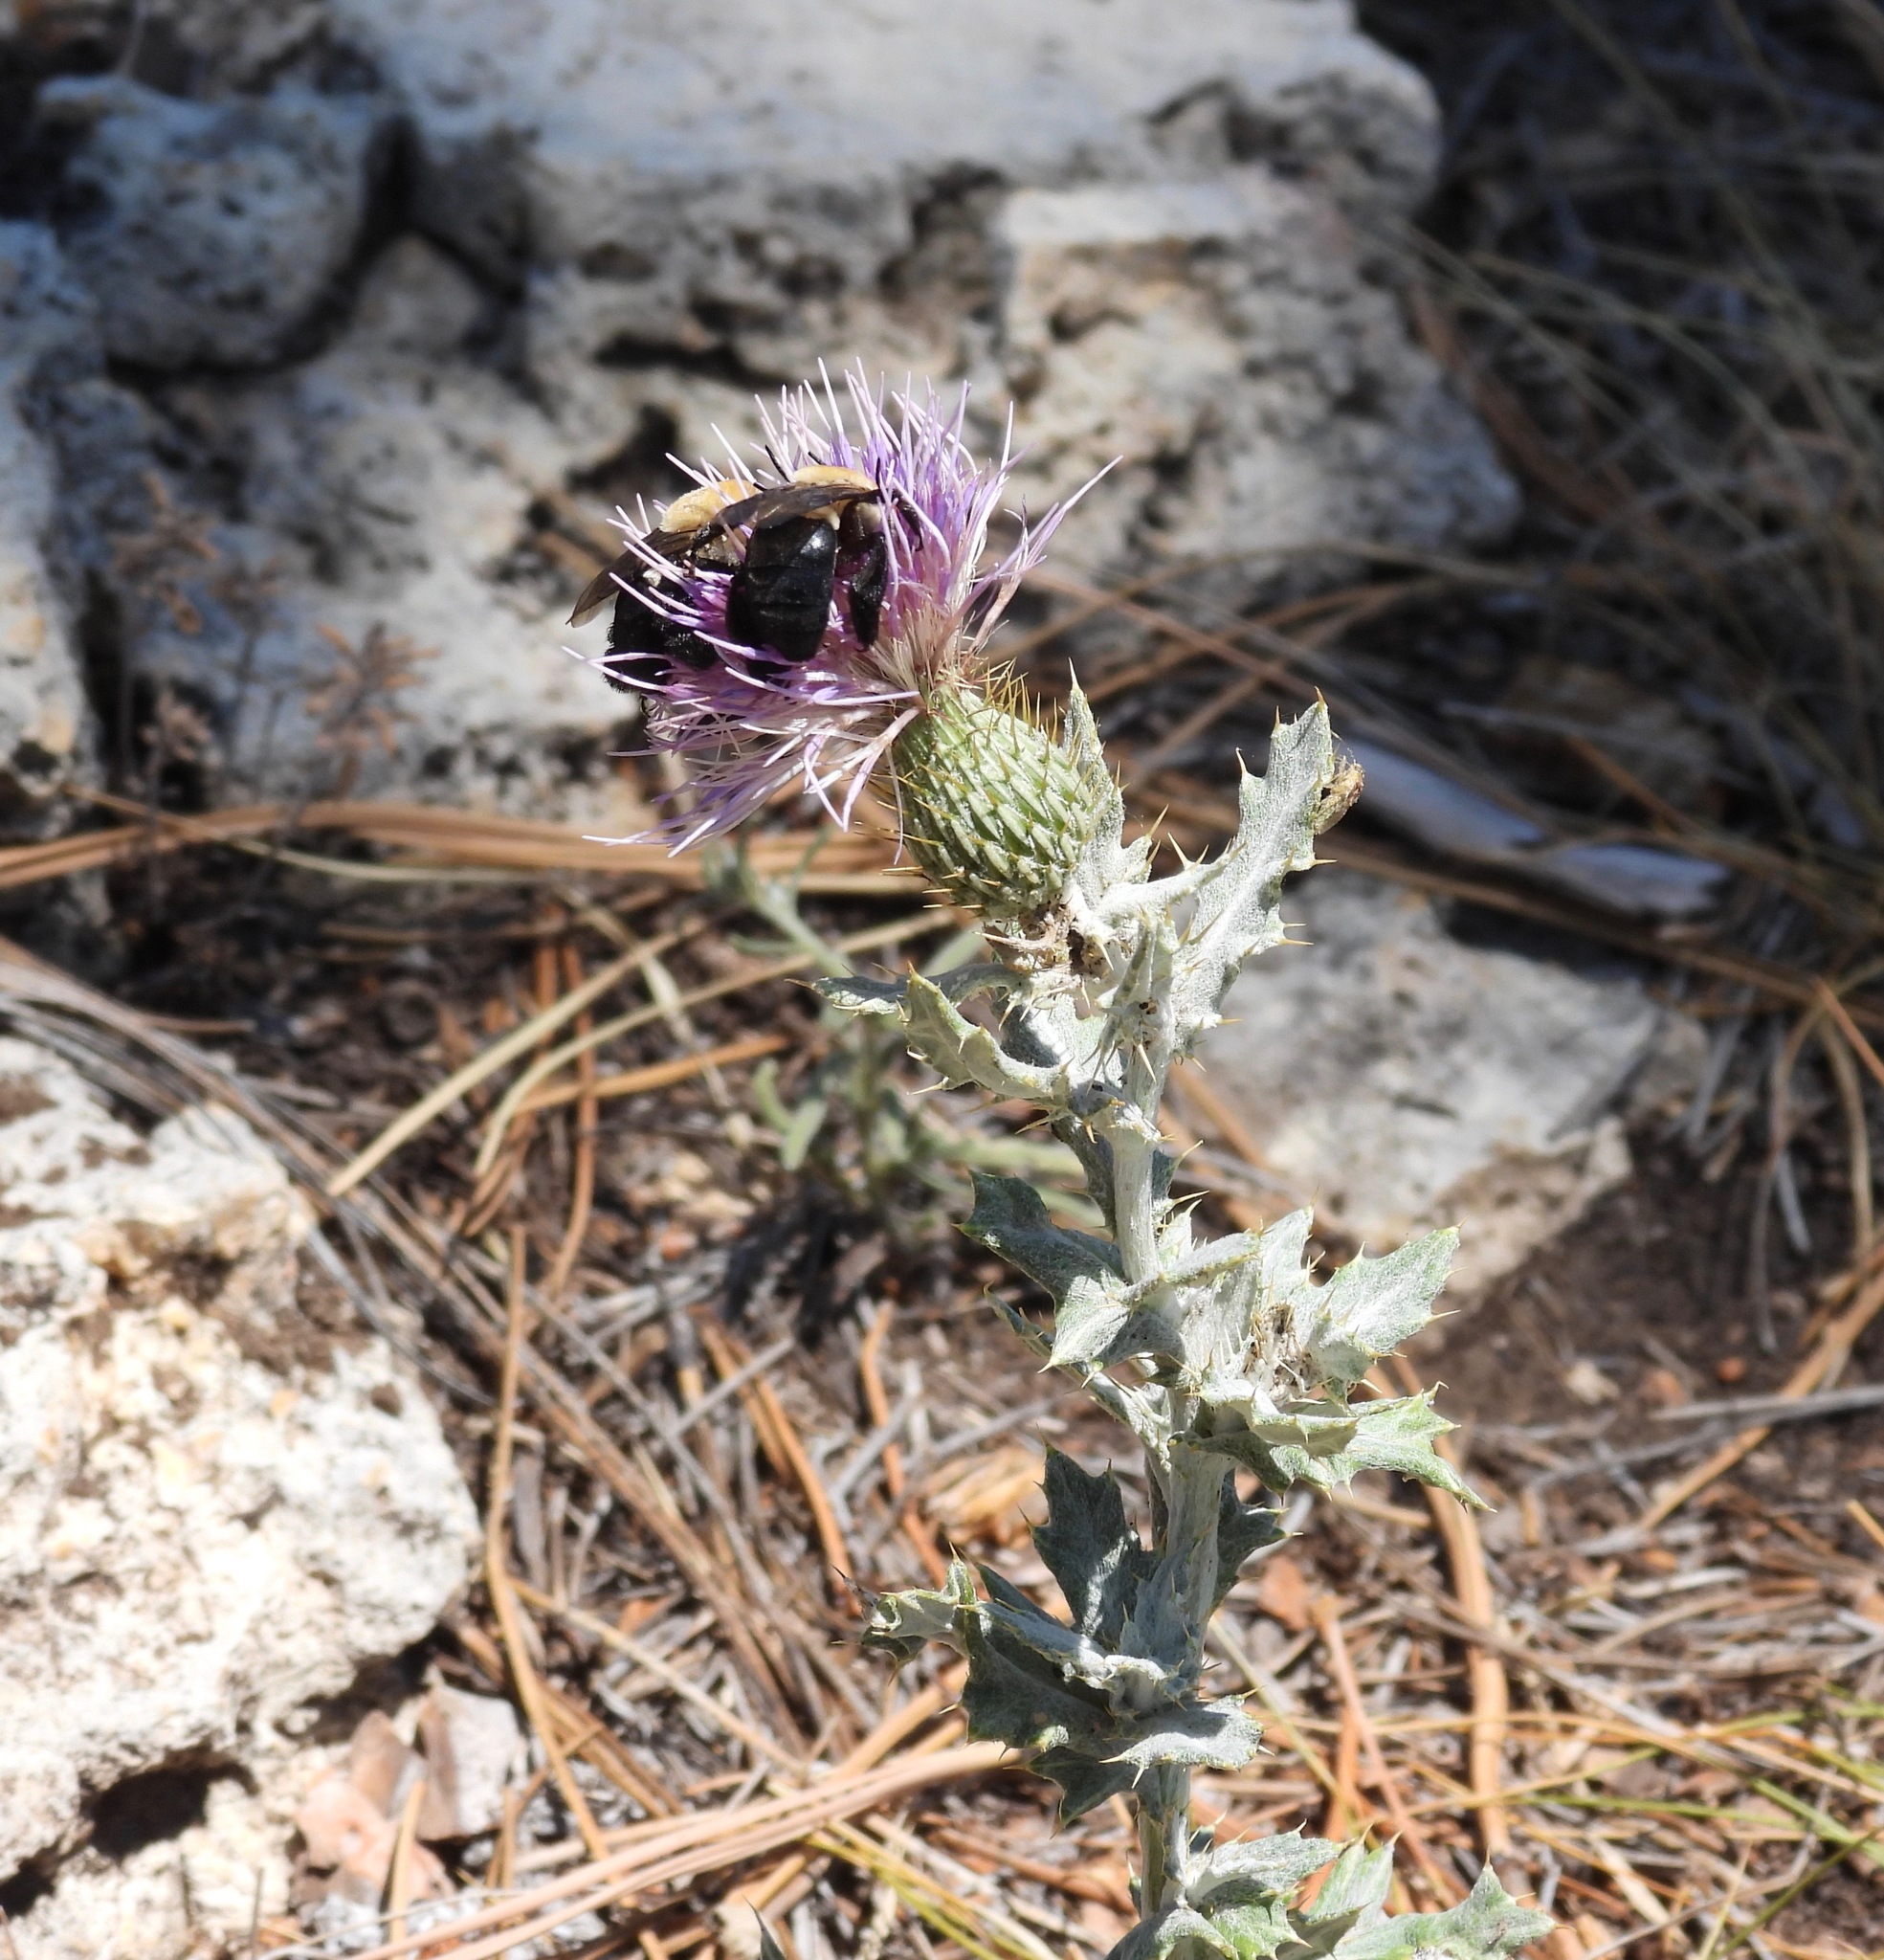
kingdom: Animalia
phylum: Arthropoda
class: Insecta
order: Hymenoptera
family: Apidae
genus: Centris
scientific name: Centris caesalpiniae
